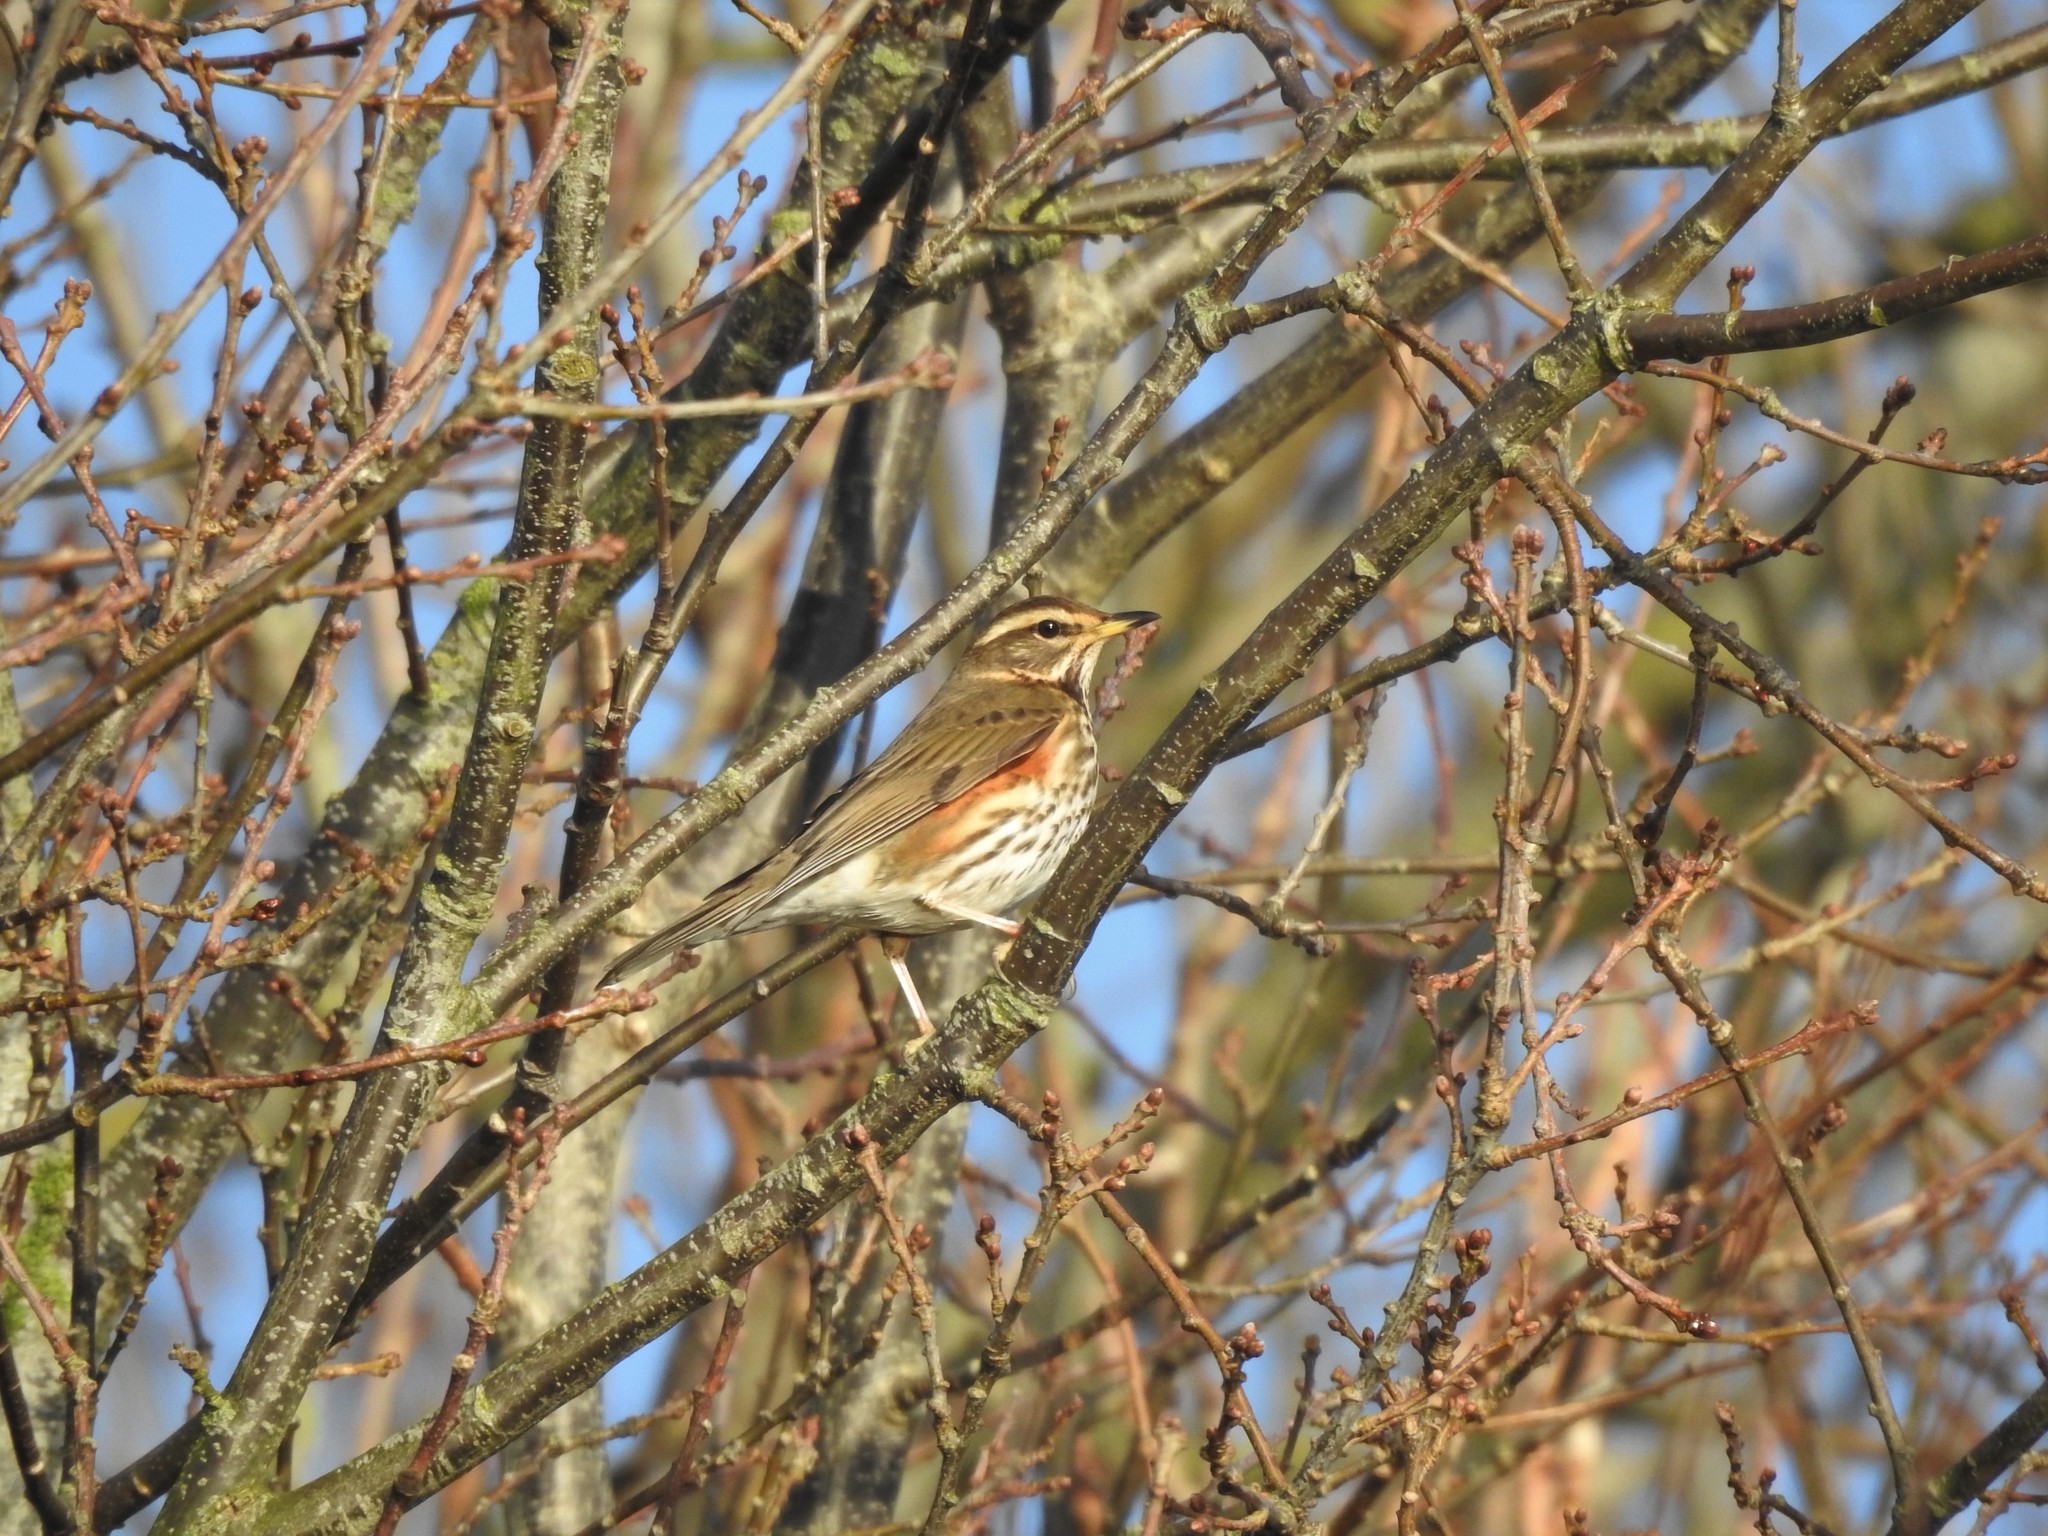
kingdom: Animalia
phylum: Chordata
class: Aves
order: Passeriformes
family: Turdidae
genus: Turdus
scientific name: Turdus iliacus
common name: Redwing
